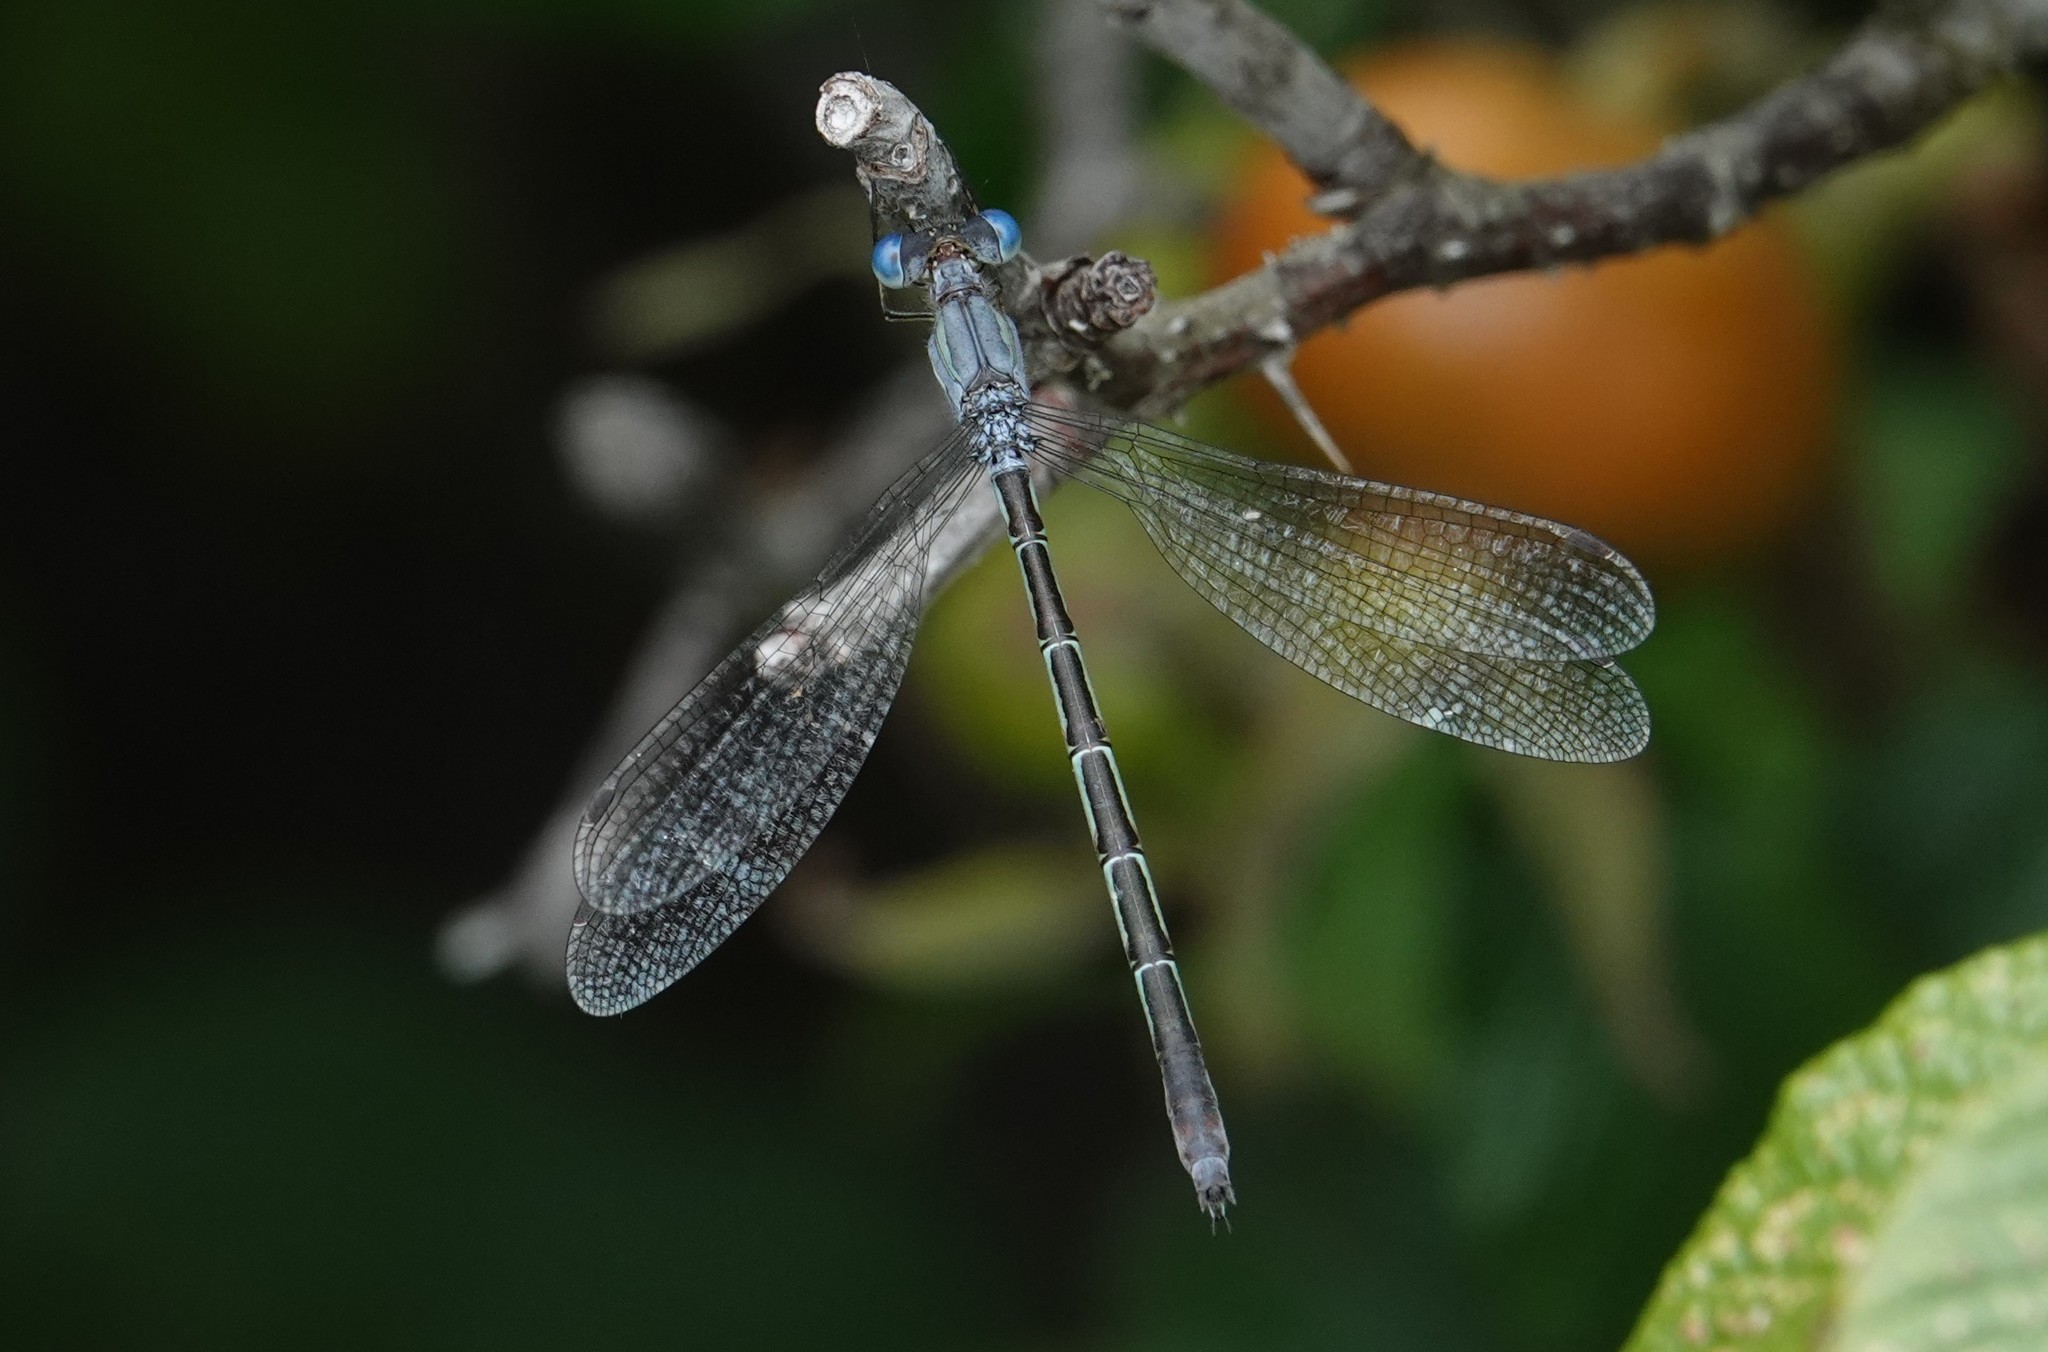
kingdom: Animalia
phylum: Arthropoda
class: Insecta
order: Odonata
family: Lestidae
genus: Lestes
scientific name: Lestes forcipatus
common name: Sweetflag spreadwing
